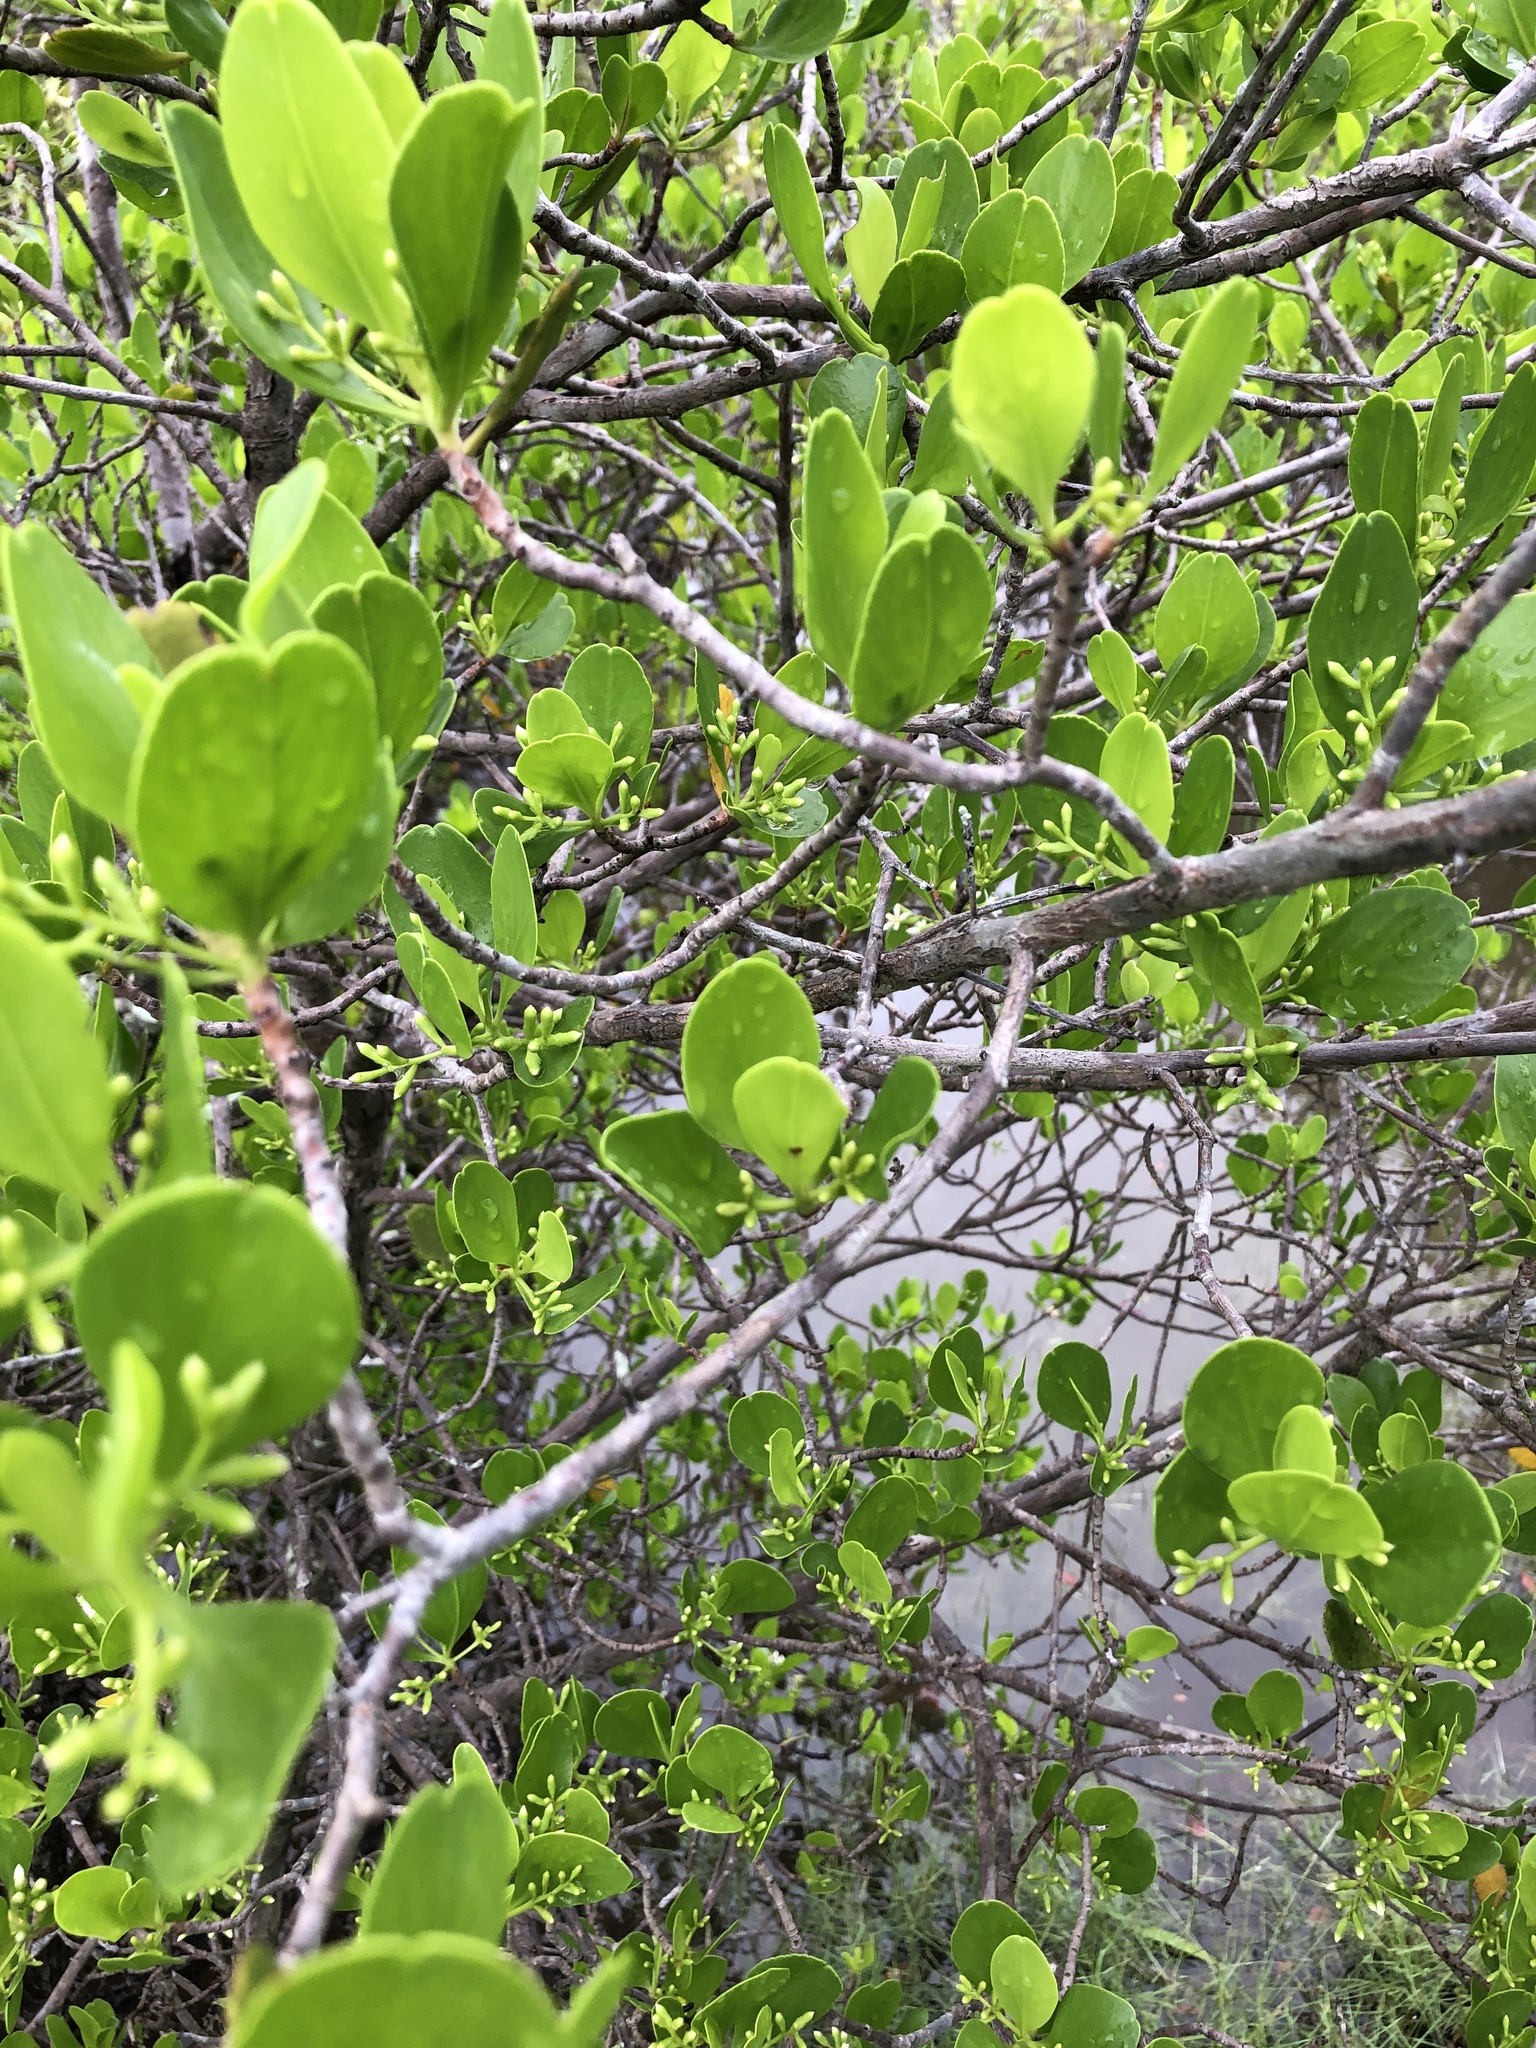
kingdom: Plantae
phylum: Tracheophyta
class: Magnoliopsida
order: Myrtales
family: Combretaceae
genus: Lumnitzera
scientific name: Lumnitzera racemosa
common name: White-flowered black mangrove
